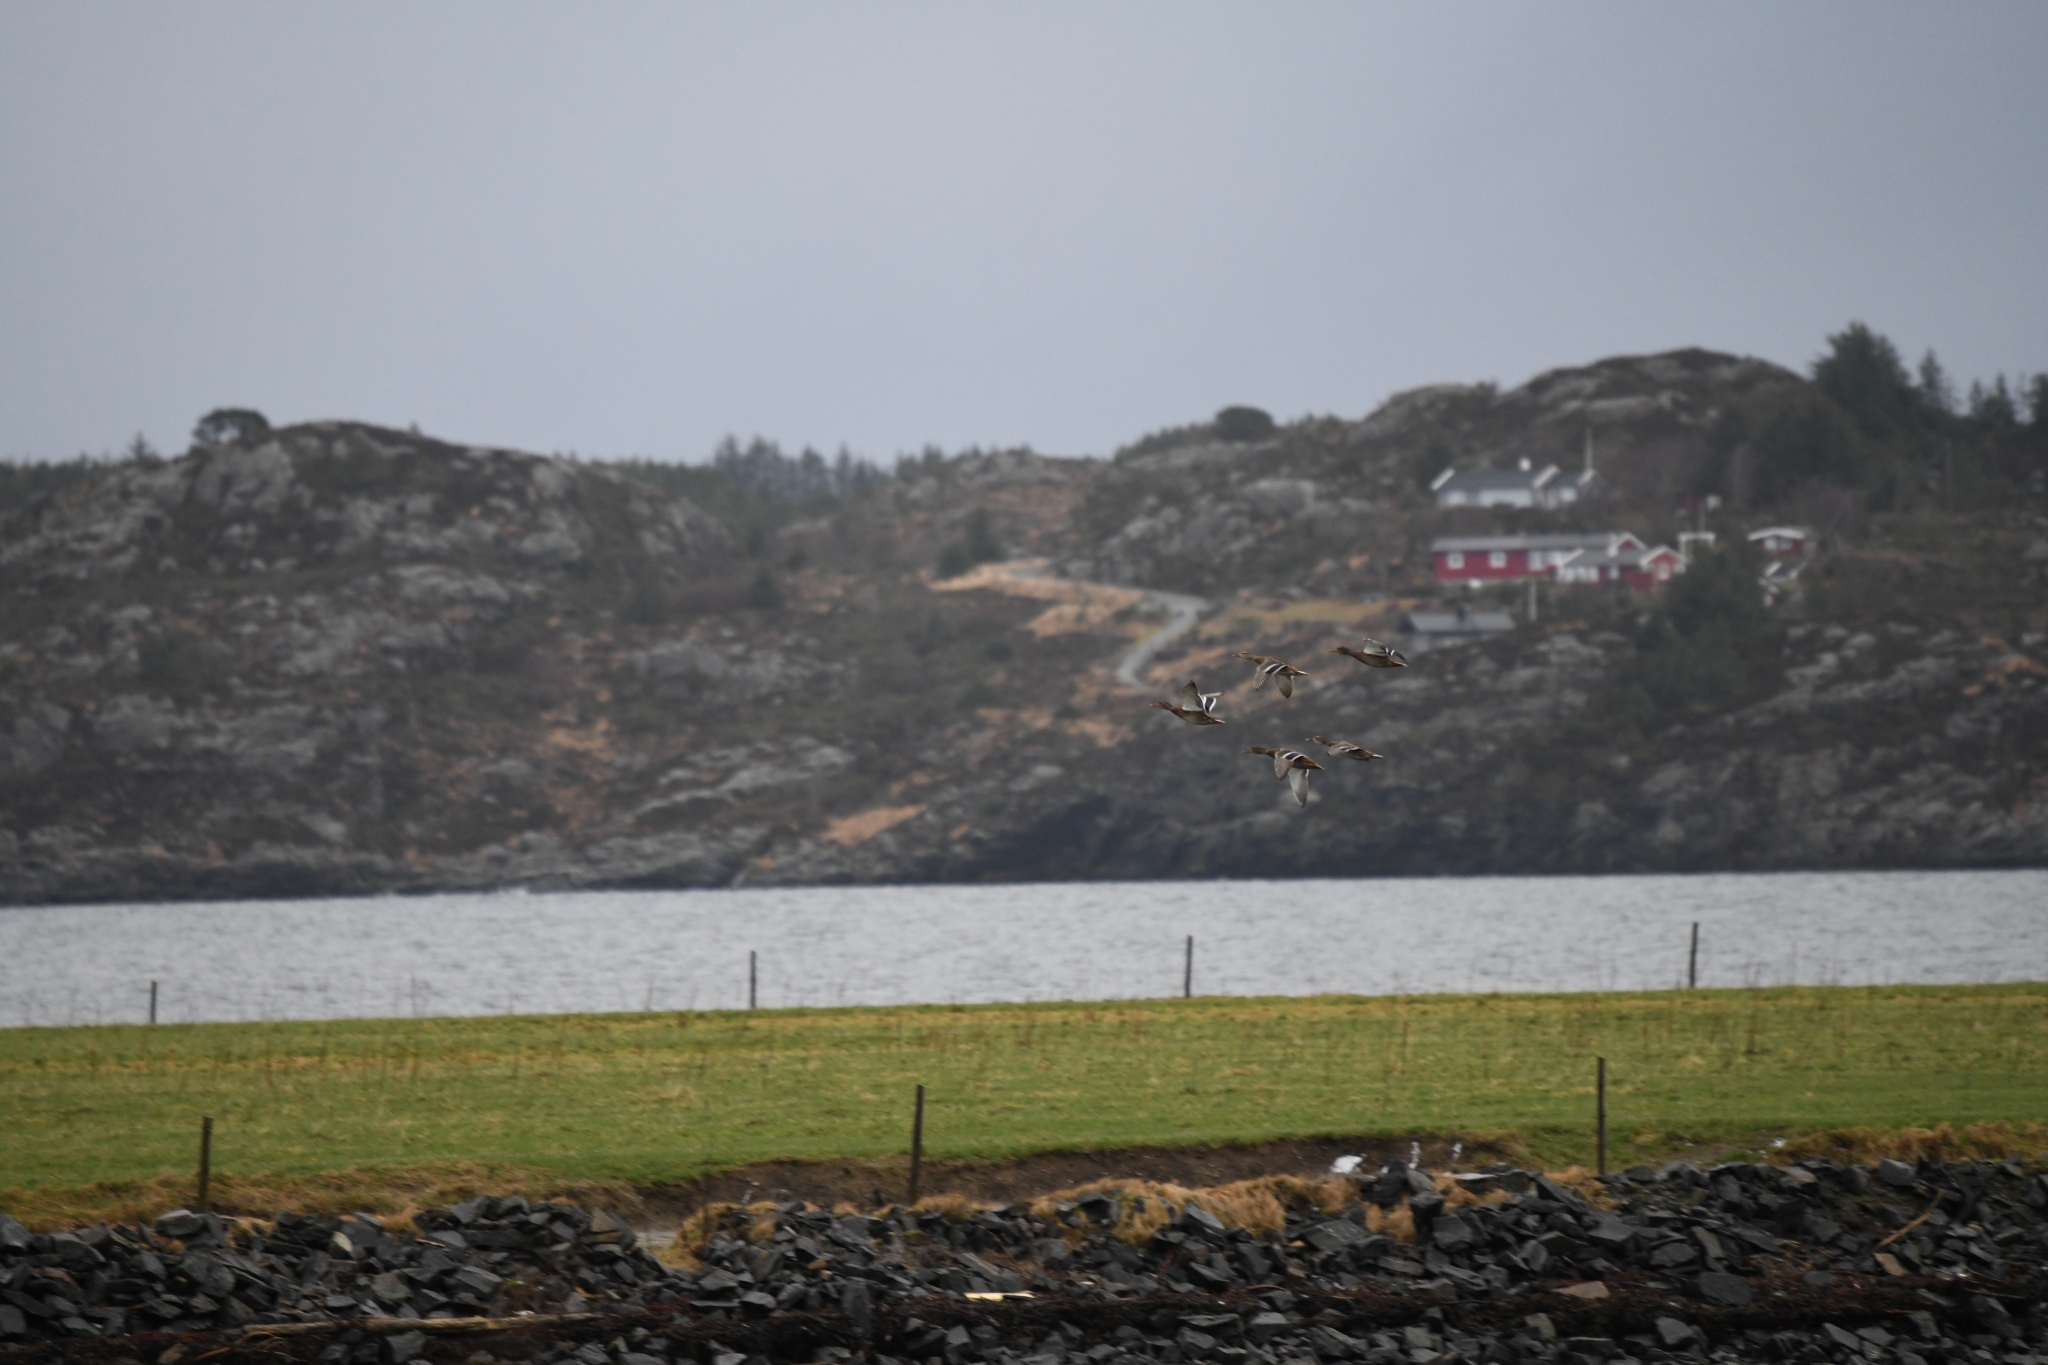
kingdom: Animalia
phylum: Chordata
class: Aves
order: Anseriformes
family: Anatidae
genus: Anas
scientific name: Anas platyrhynchos
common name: Mallard
